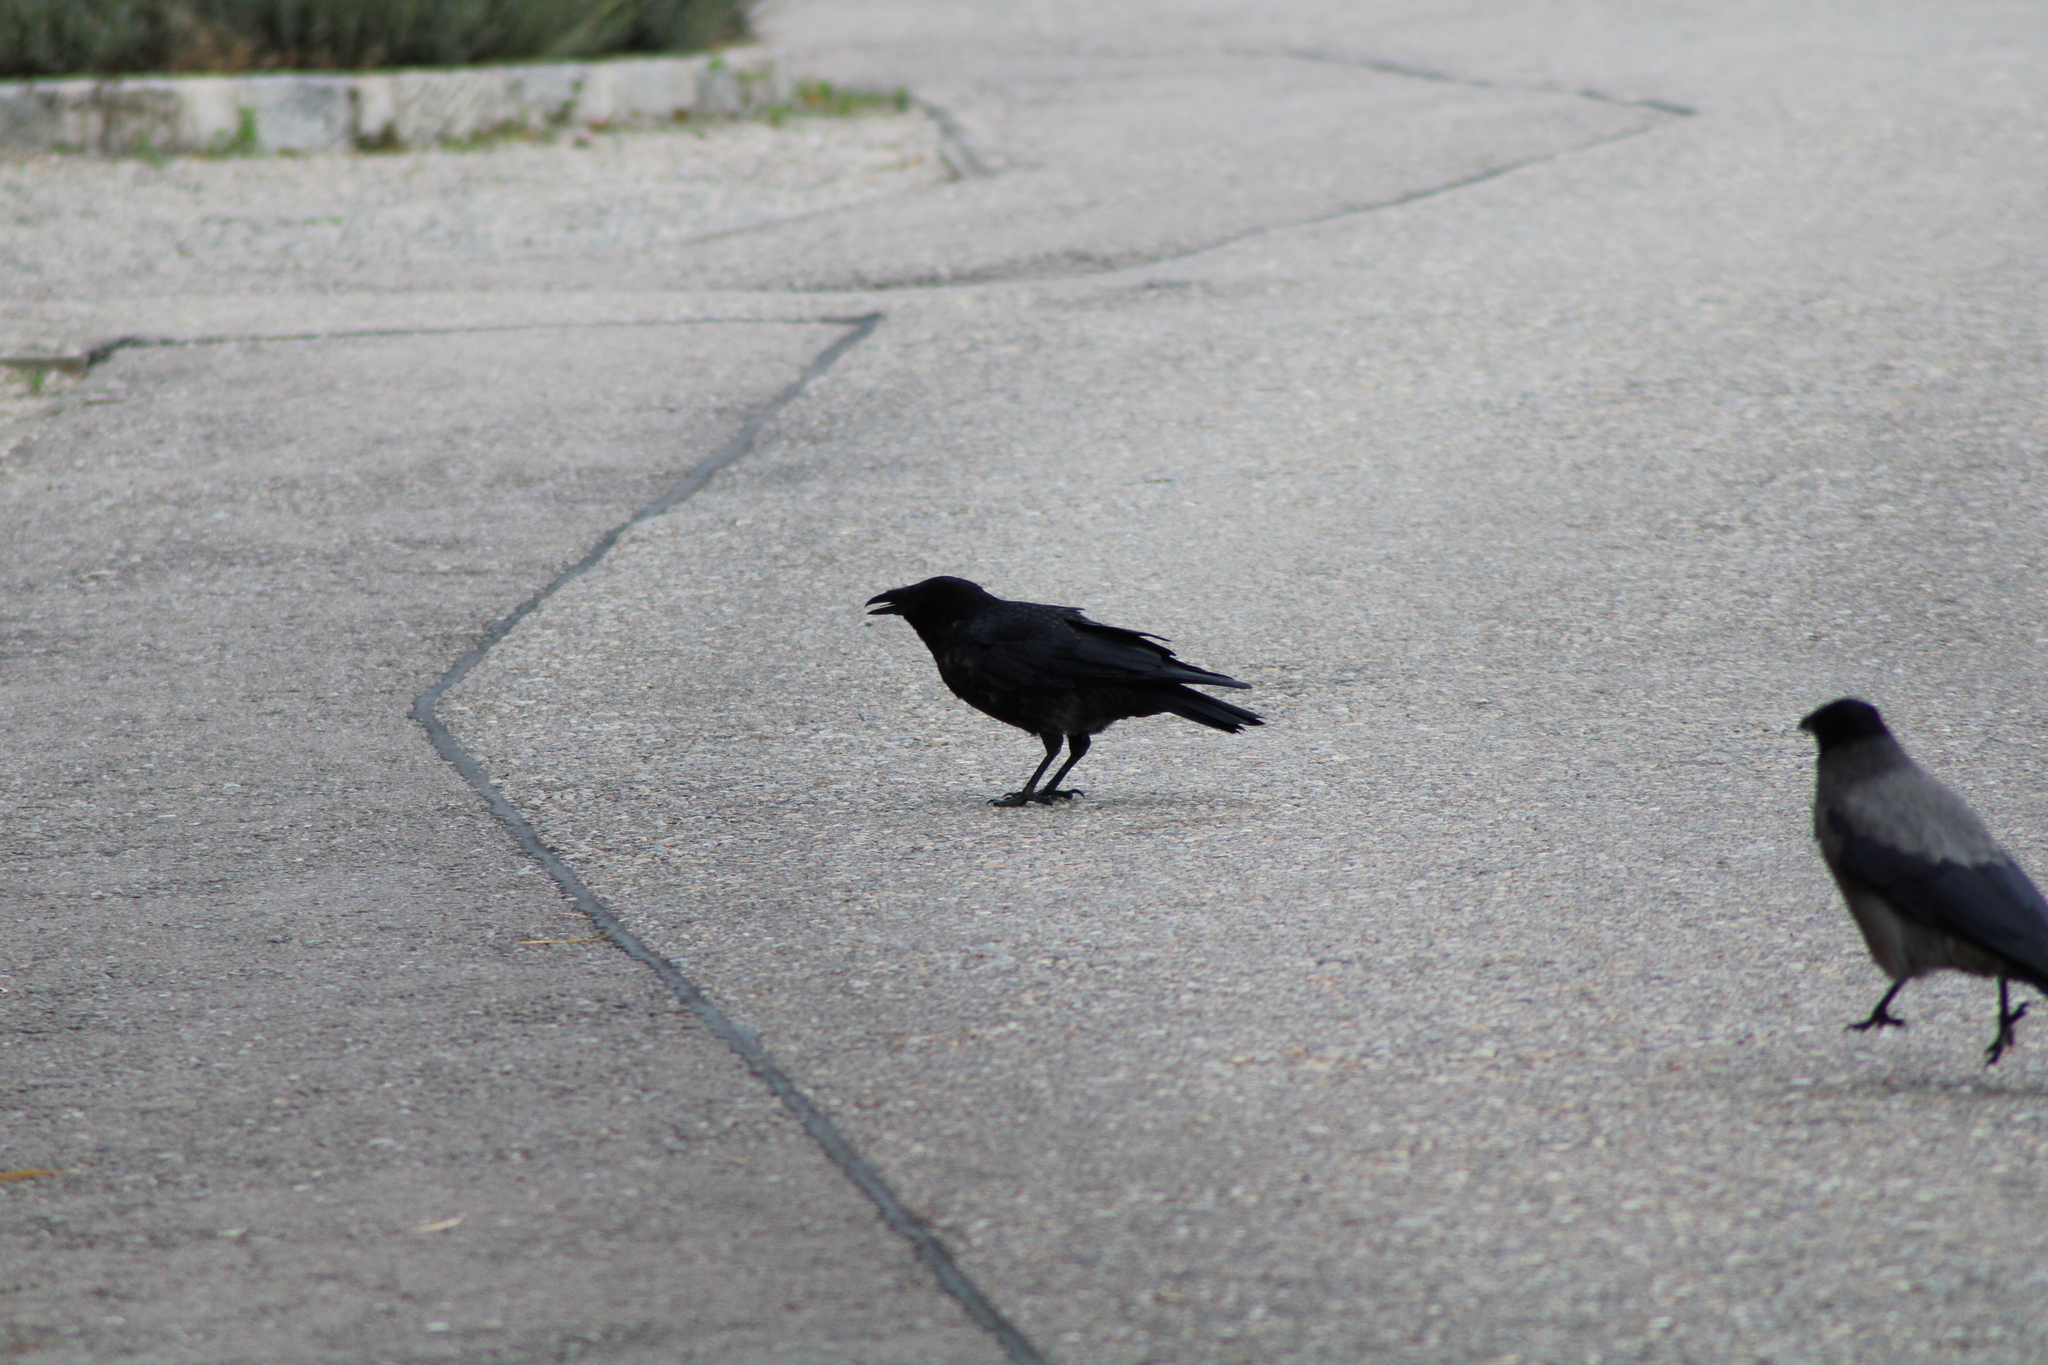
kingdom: Animalia
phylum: Chordata
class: Aves
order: Passeriformes
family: Corvidae
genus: Corvus
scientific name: Corvus corone
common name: Carrion crow
